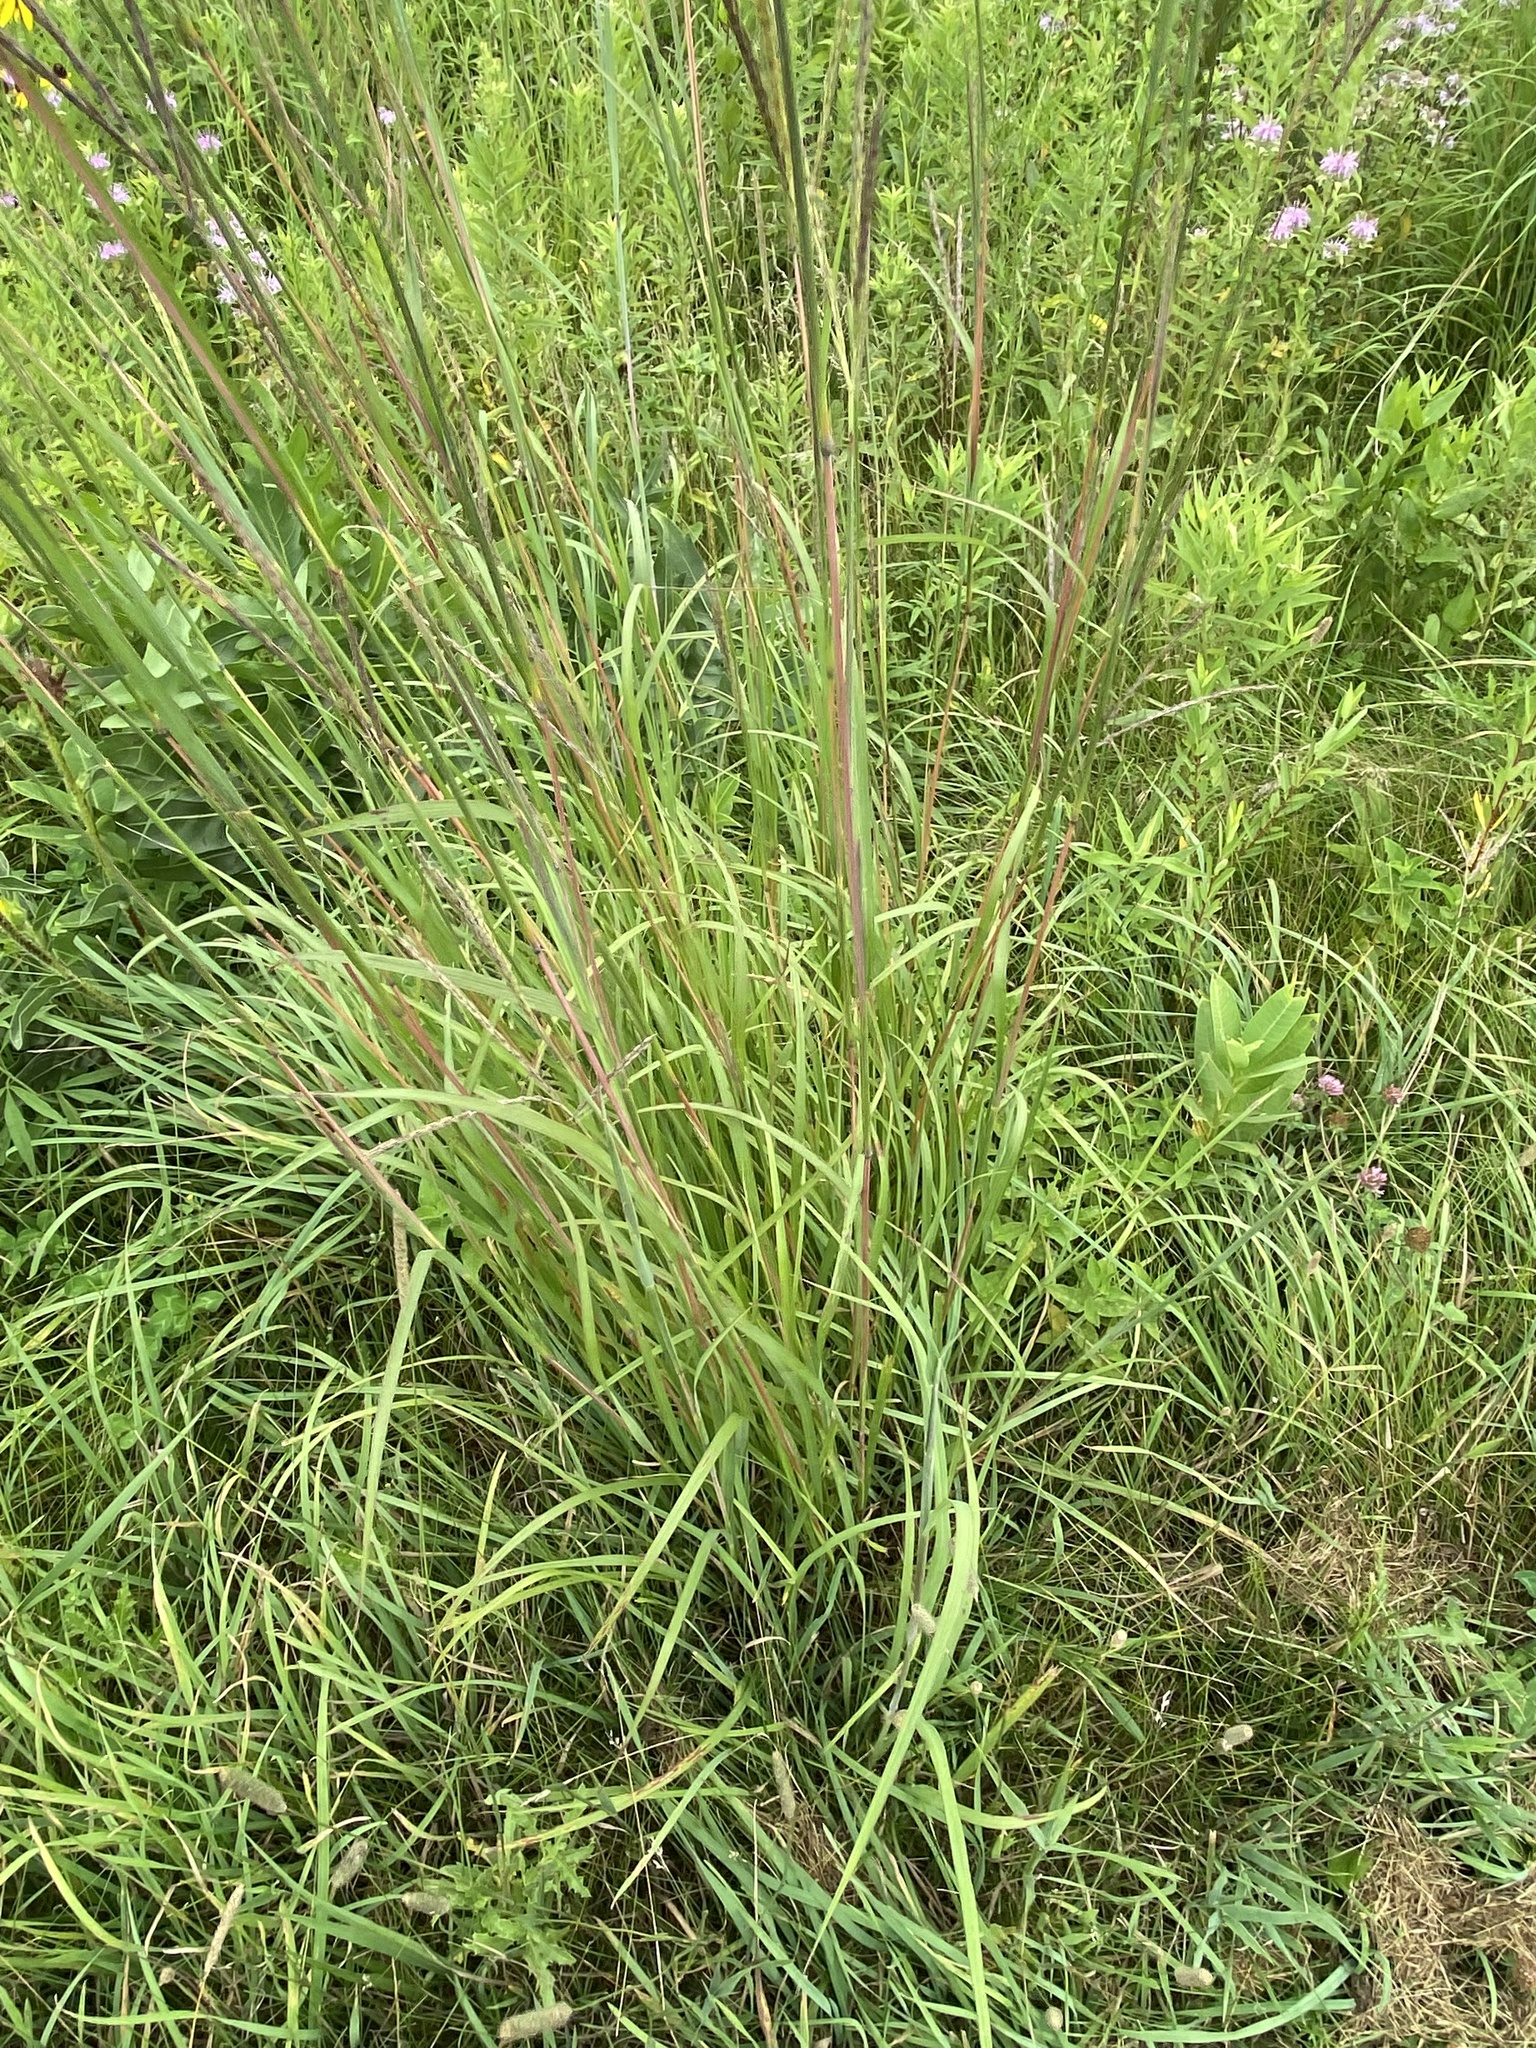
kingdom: Plantae
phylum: Tracheophyta
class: Liliopsida
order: Poales
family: Poaceae
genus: Andropogon
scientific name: Andropogon gerardi
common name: Big bluestem
